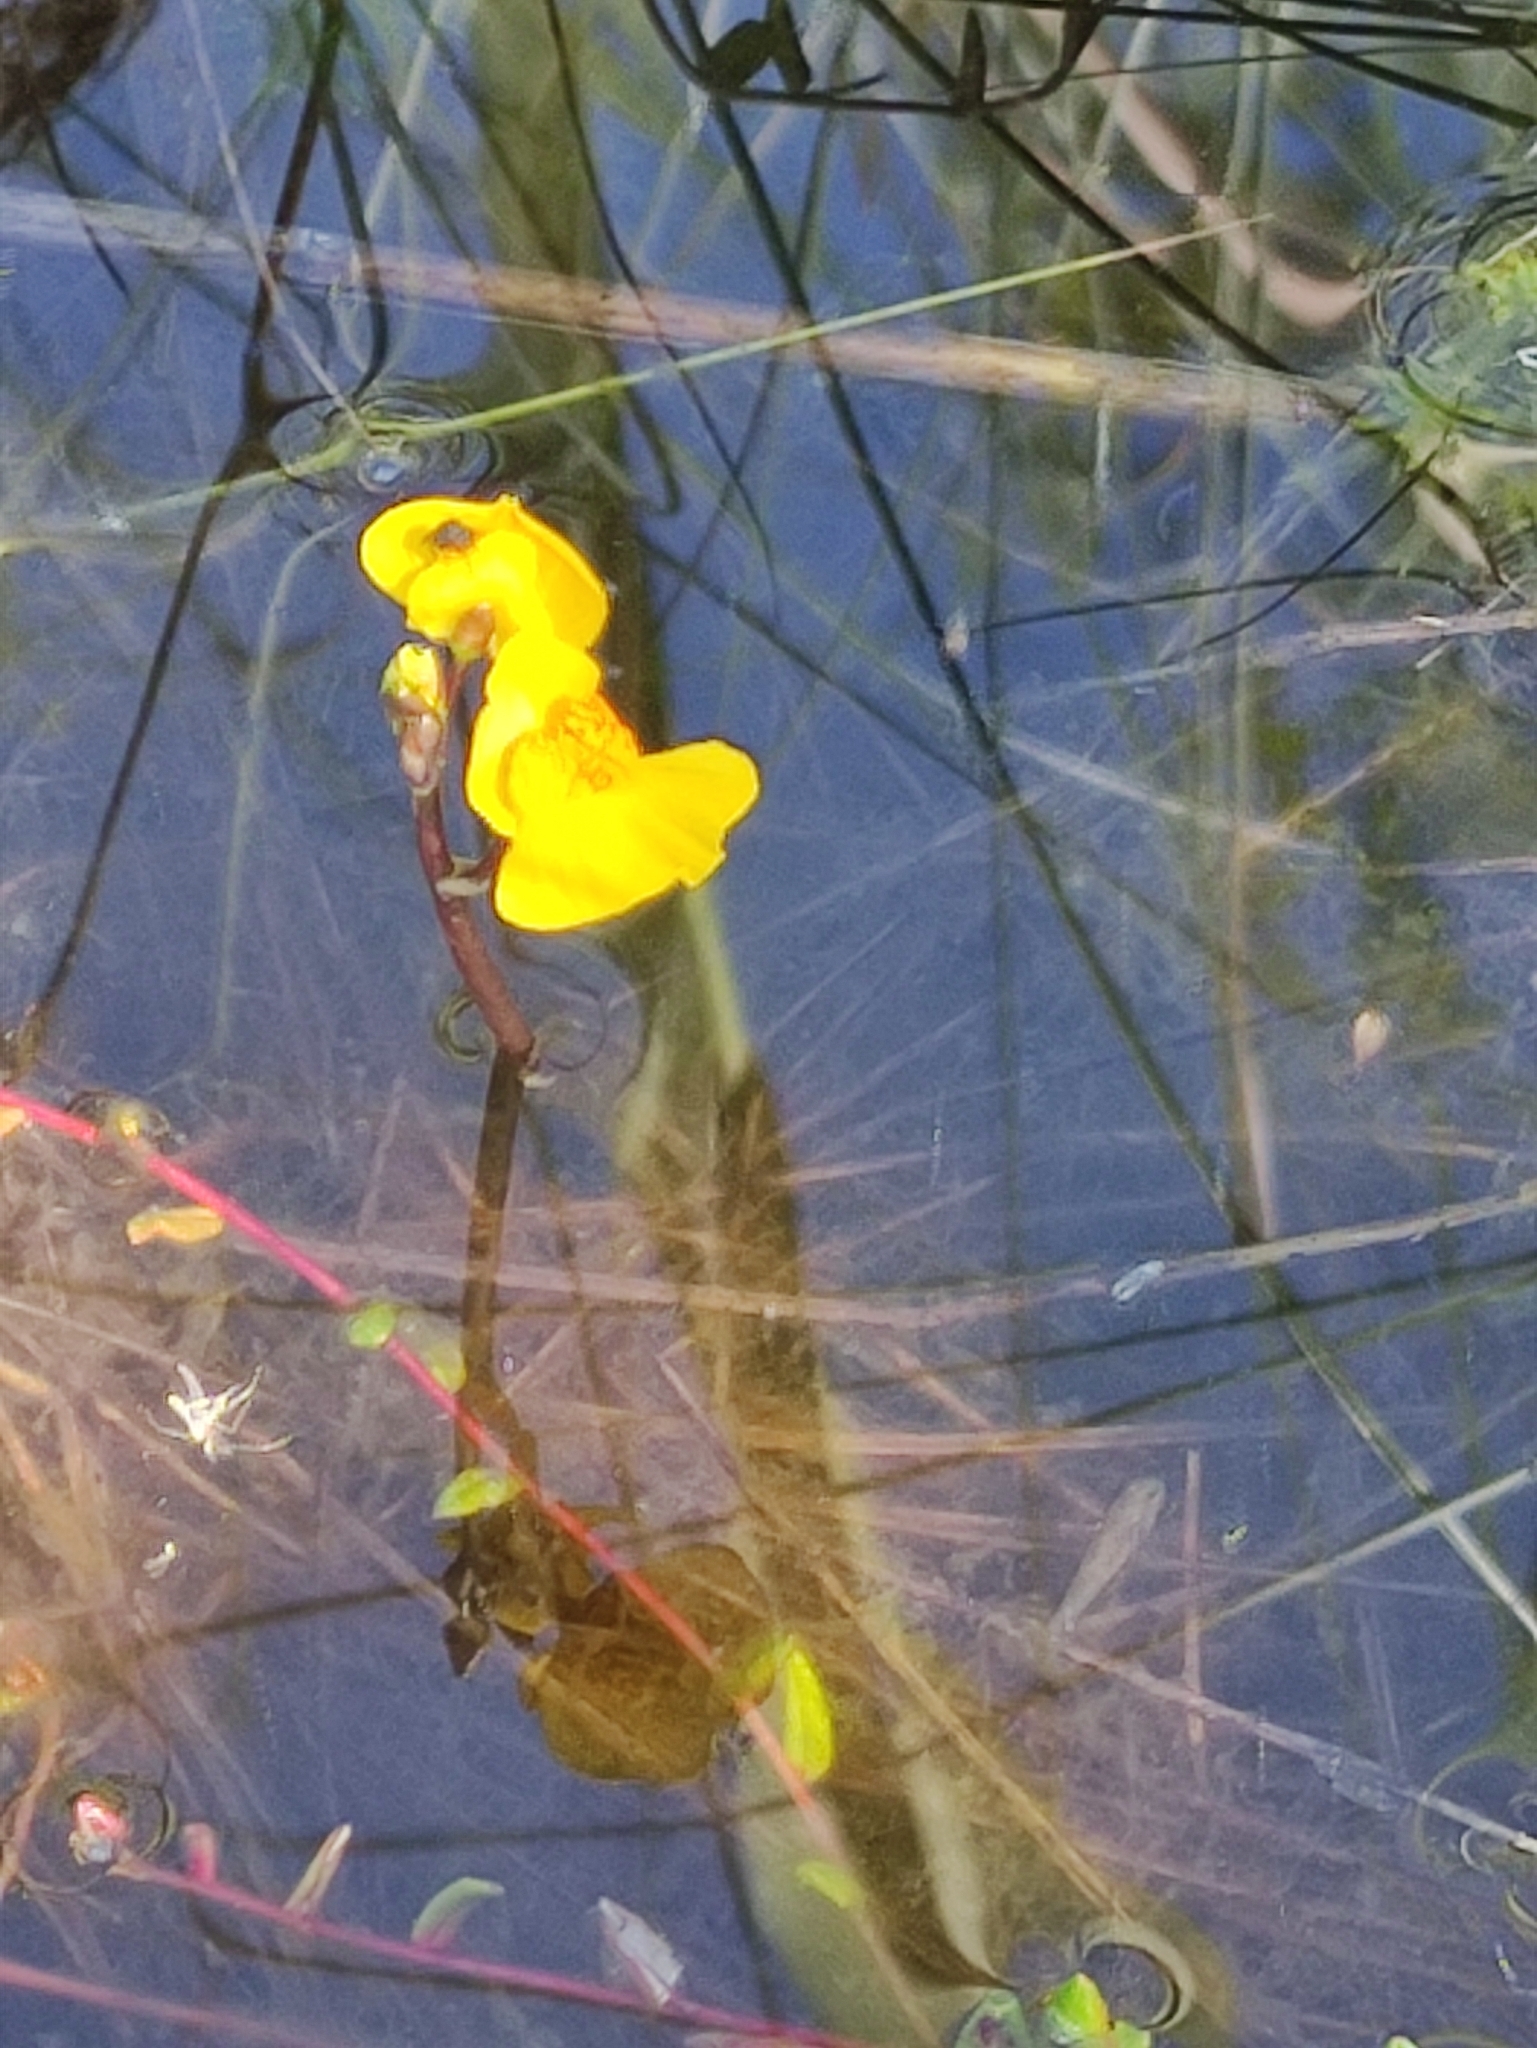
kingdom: Plantae
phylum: Tracheophyta
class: Magnoliopsida
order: Lamiales
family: Lentibulariaceae
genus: Utricularia
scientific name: Utricularia australis
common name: Bladderwort
